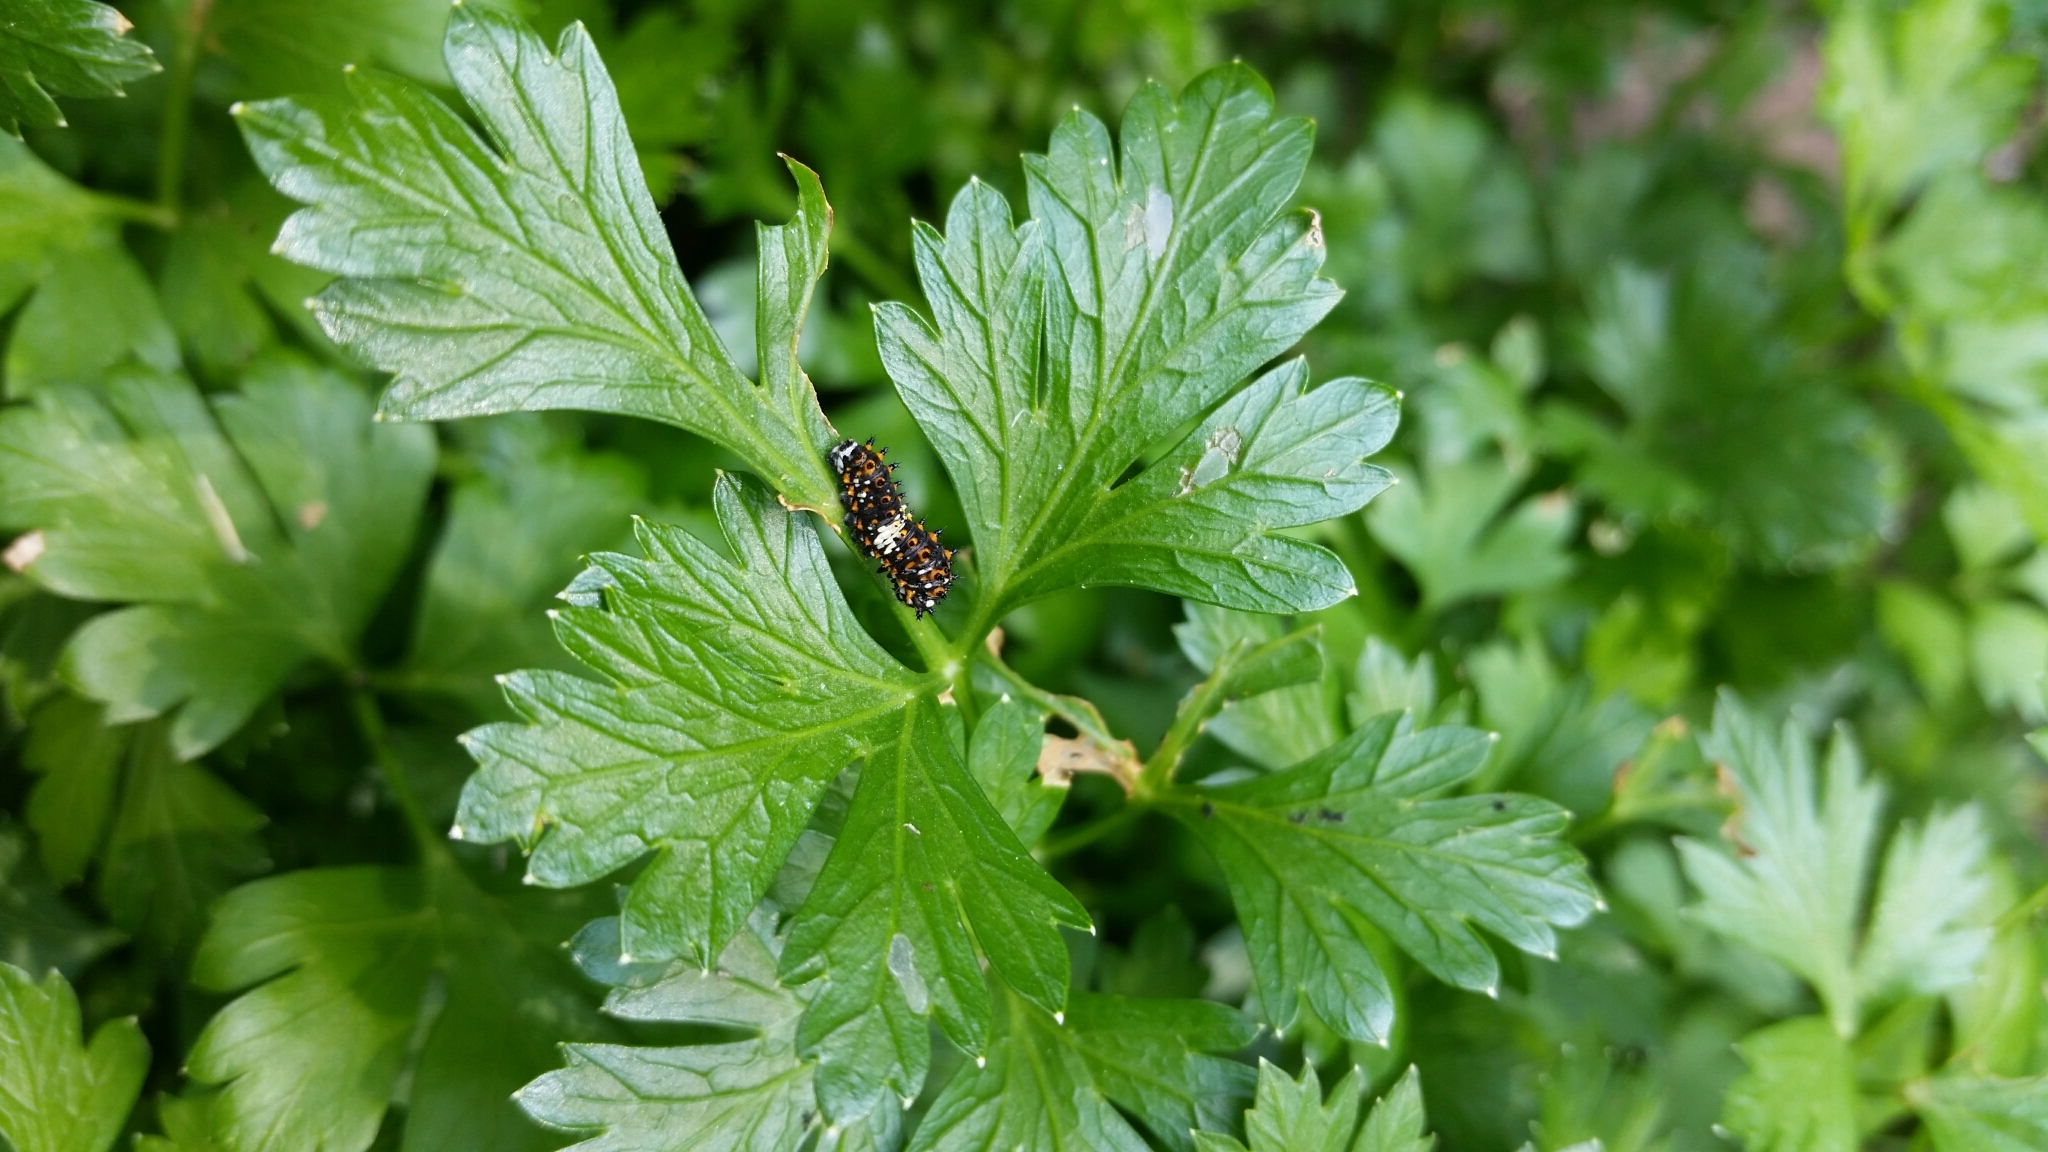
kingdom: Animalia
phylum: Arthropoda
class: Insecta
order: Lepidoptera
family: Papilionidae
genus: Papilio
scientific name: Papilio polyxenes
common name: Black swallowtail
